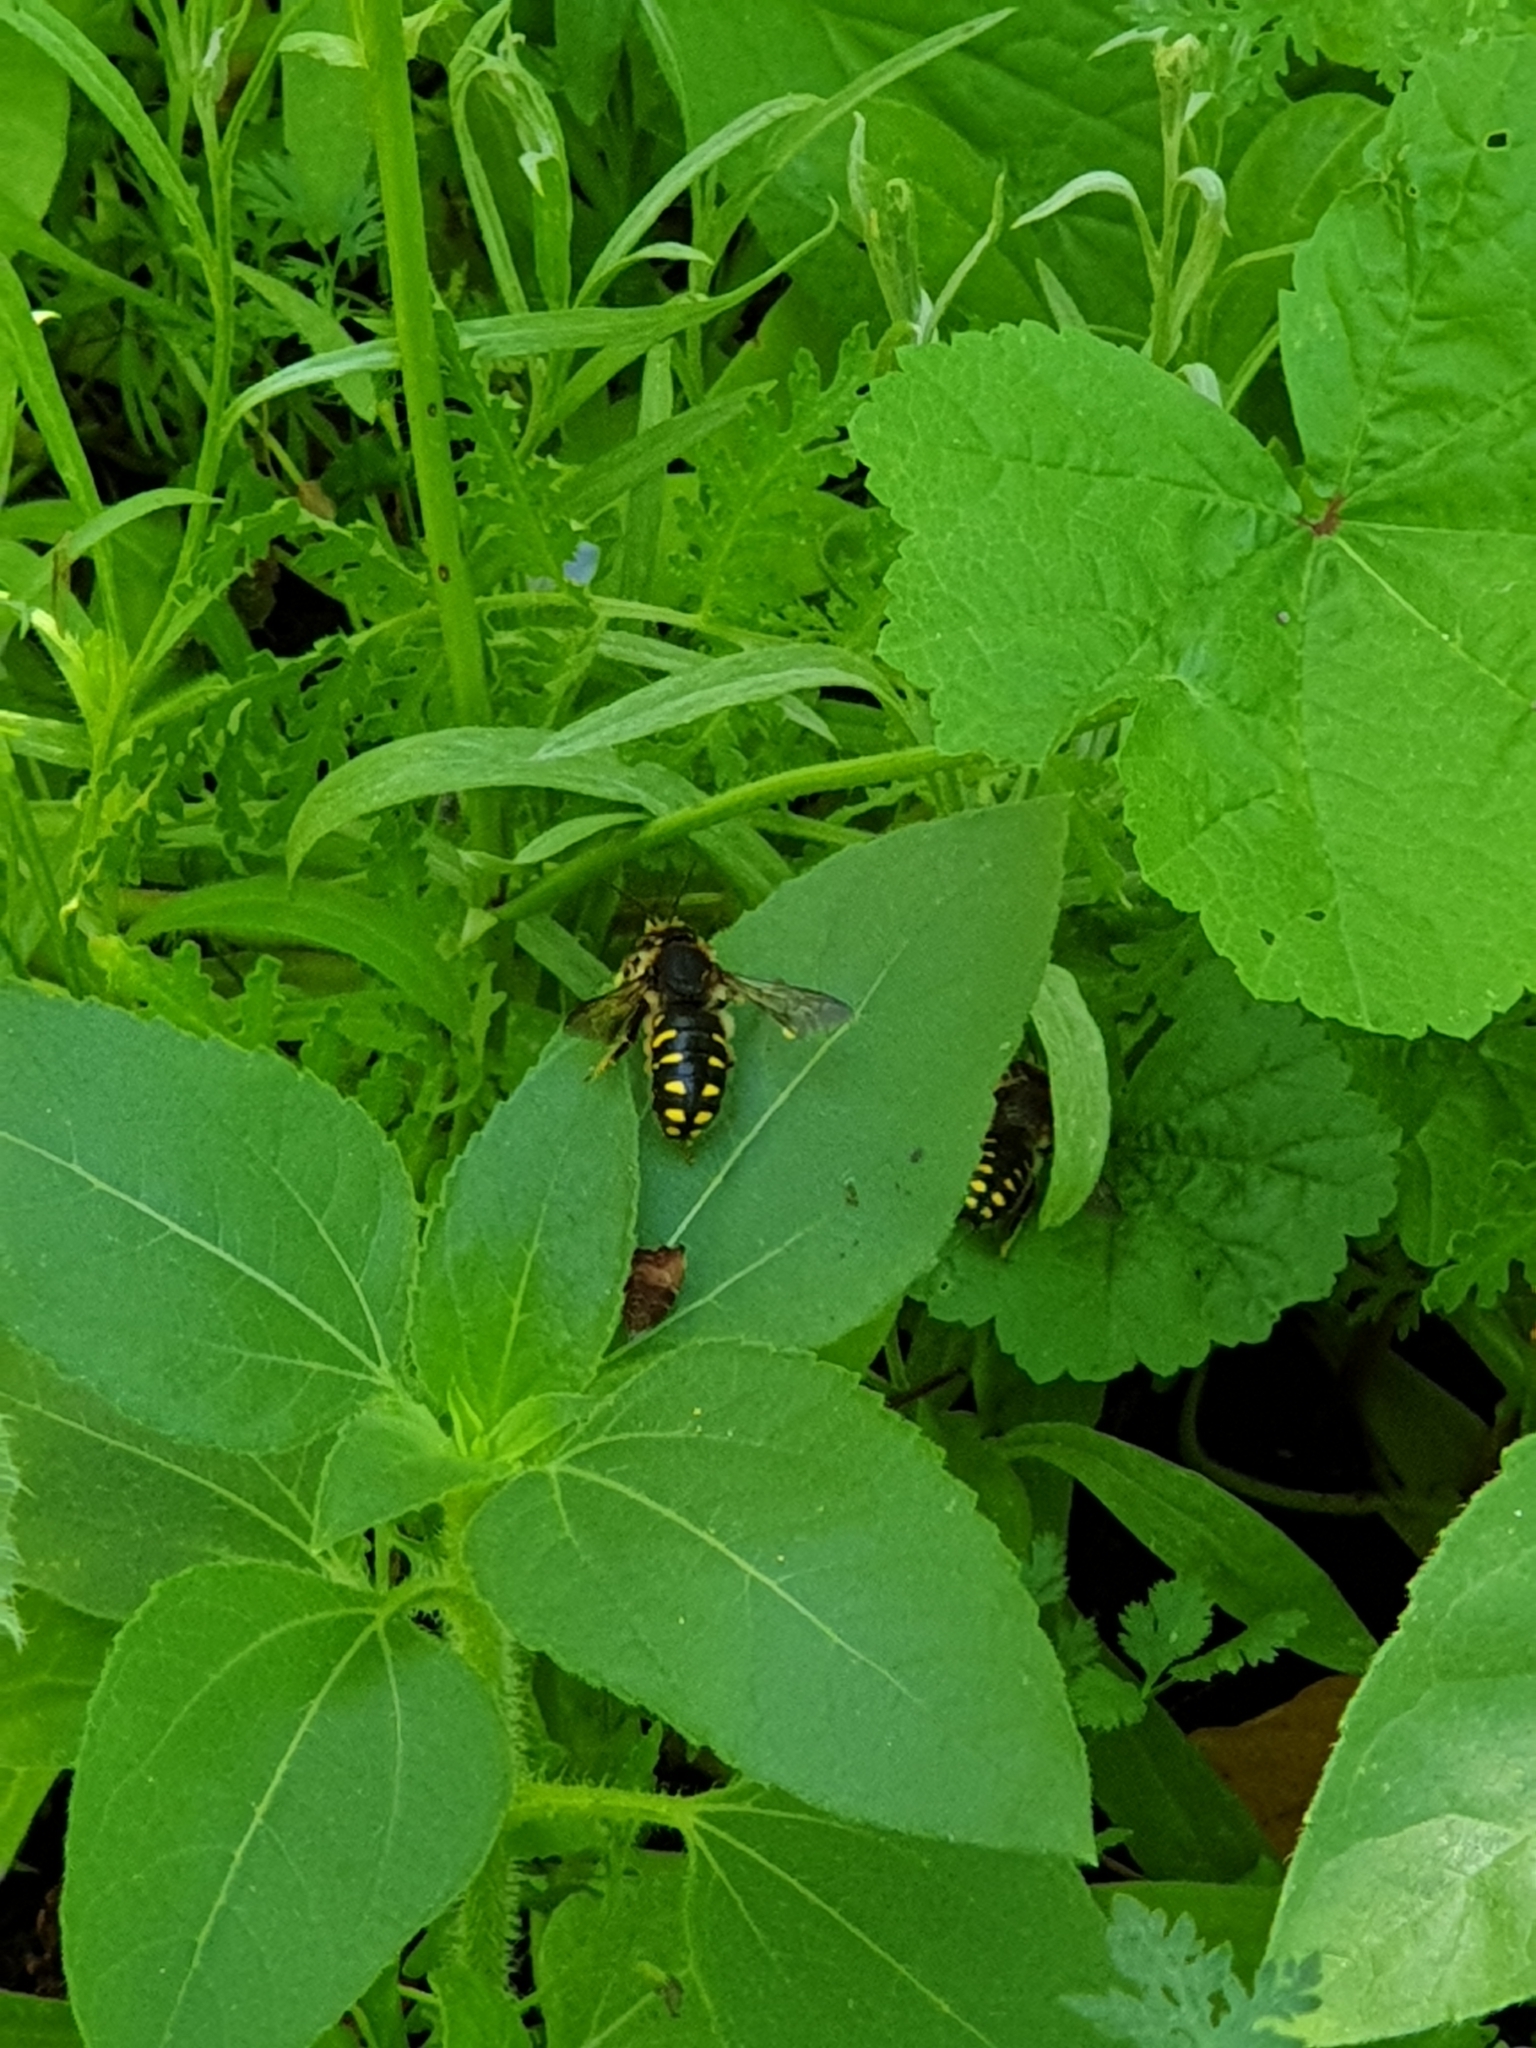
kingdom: Animalia
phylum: Arthropoda
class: Insecta
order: Hymenoptera
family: Megachilidae
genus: Anthidium
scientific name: Anthidium septemspinosum
